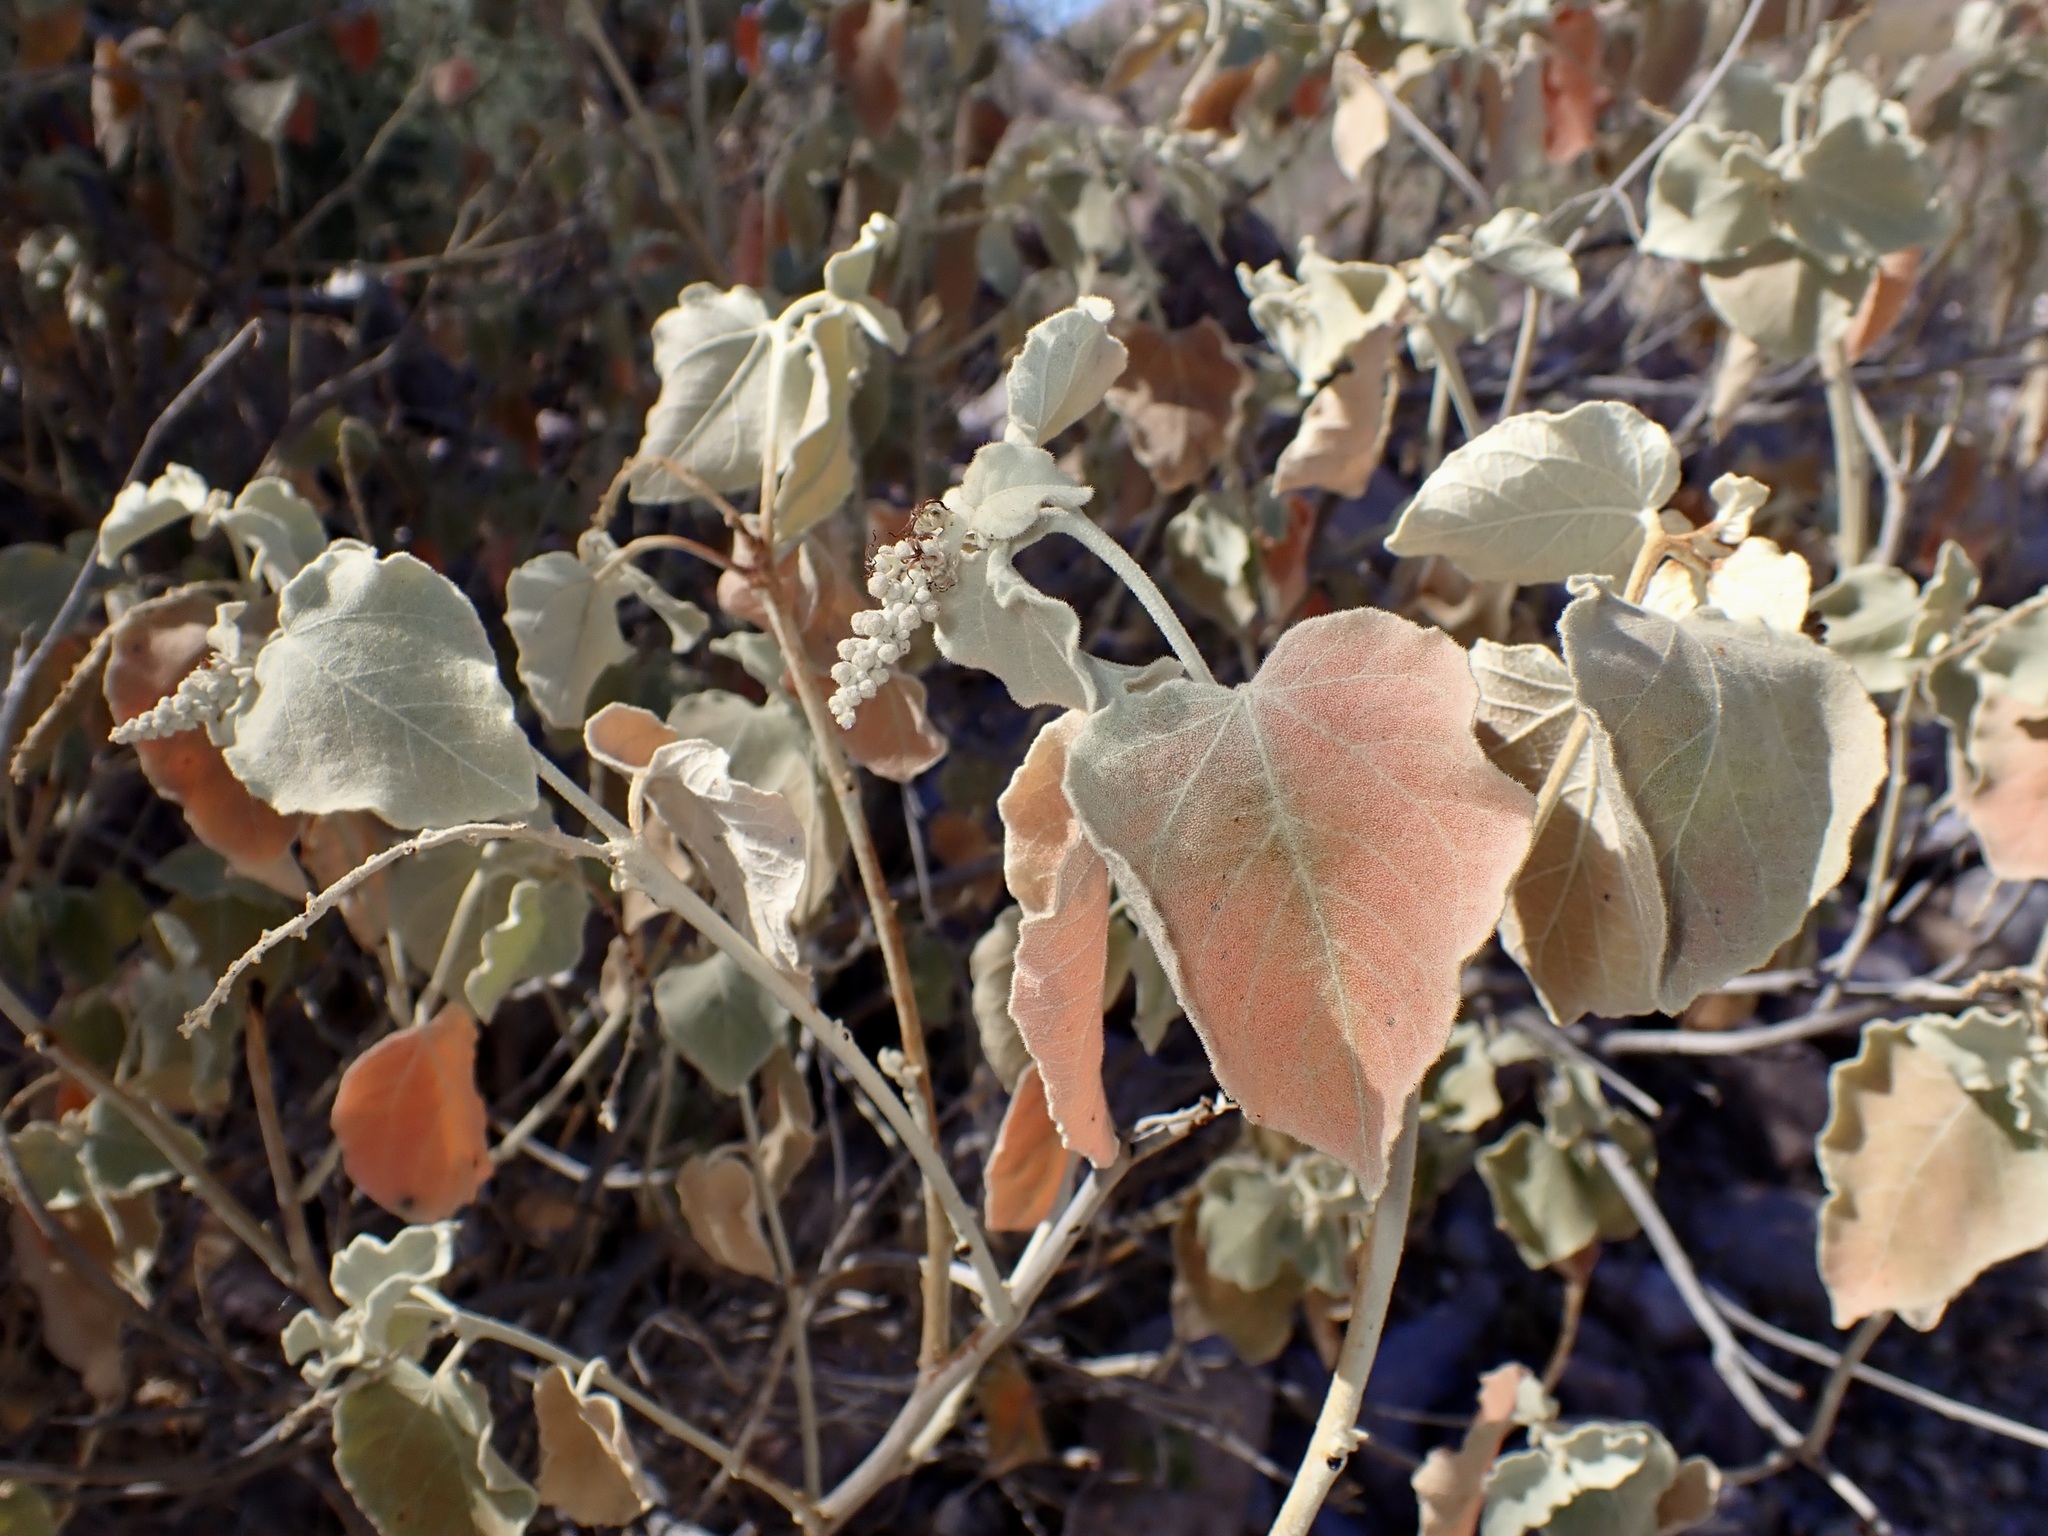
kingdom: Plantae
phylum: Tracheophyta
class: Magnoliopsida
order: Malpighiales
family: Euphorbiaceae
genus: Croton
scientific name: Croton magdalenae
